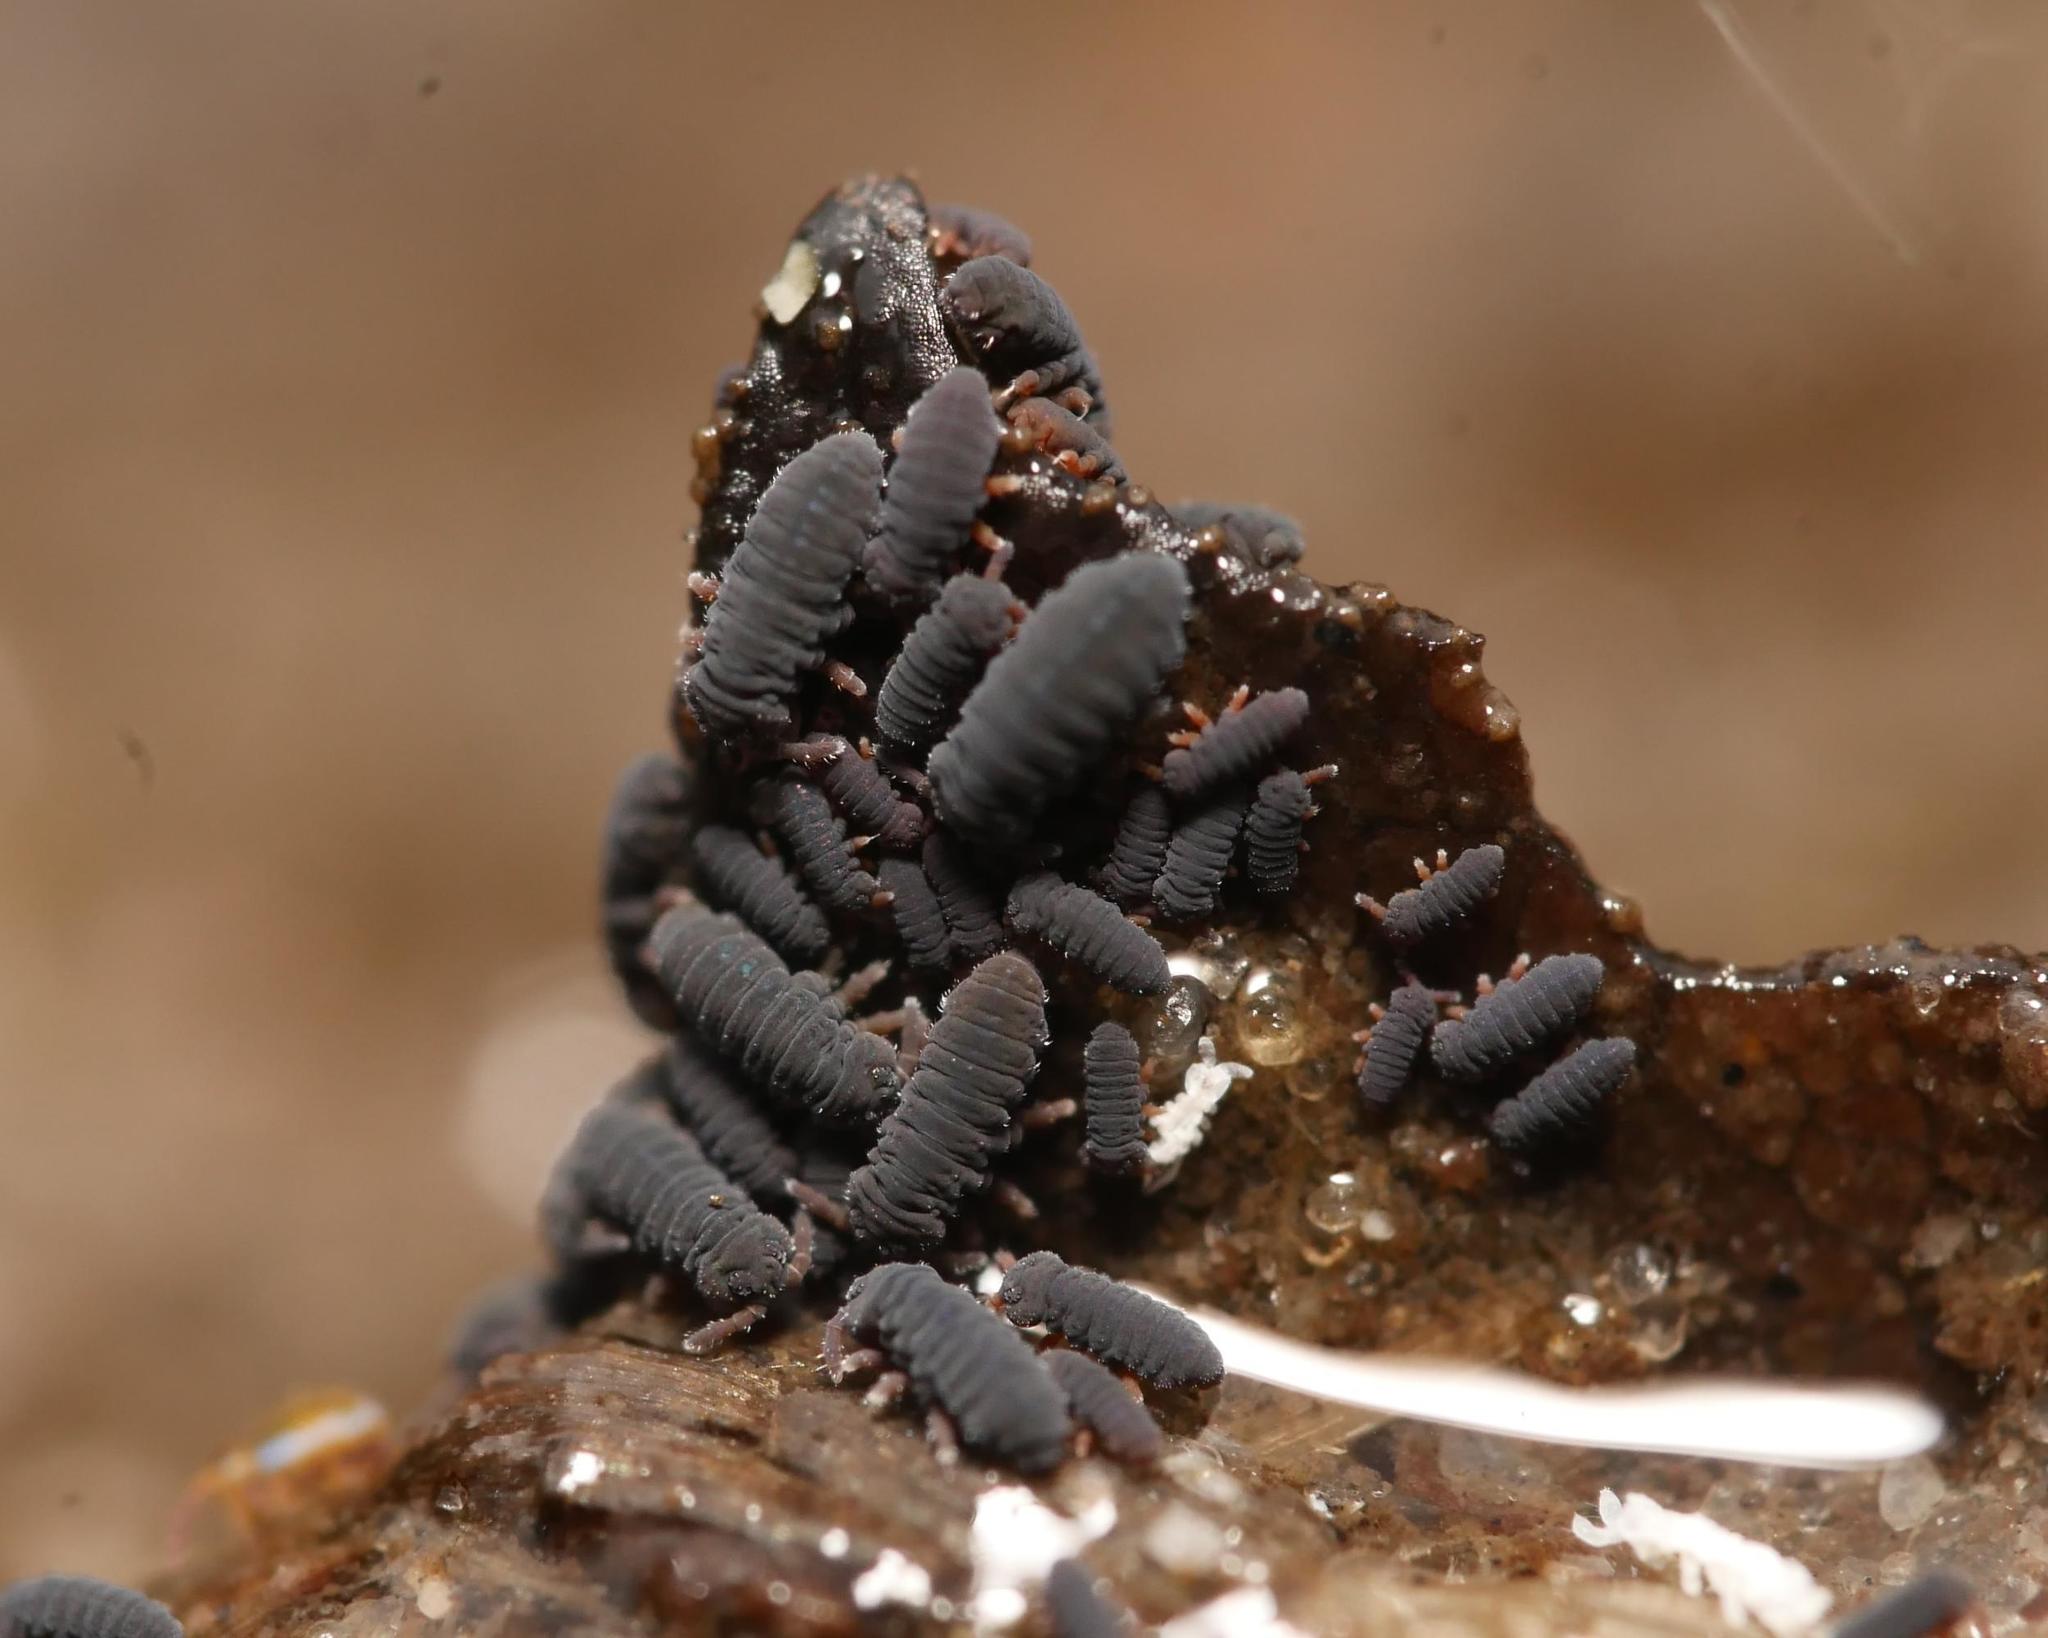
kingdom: Animalia
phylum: Arthropoda
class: Collembola
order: Poduromorpha
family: Poduridae
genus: Podura
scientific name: Podura aquatica
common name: Water springtail
